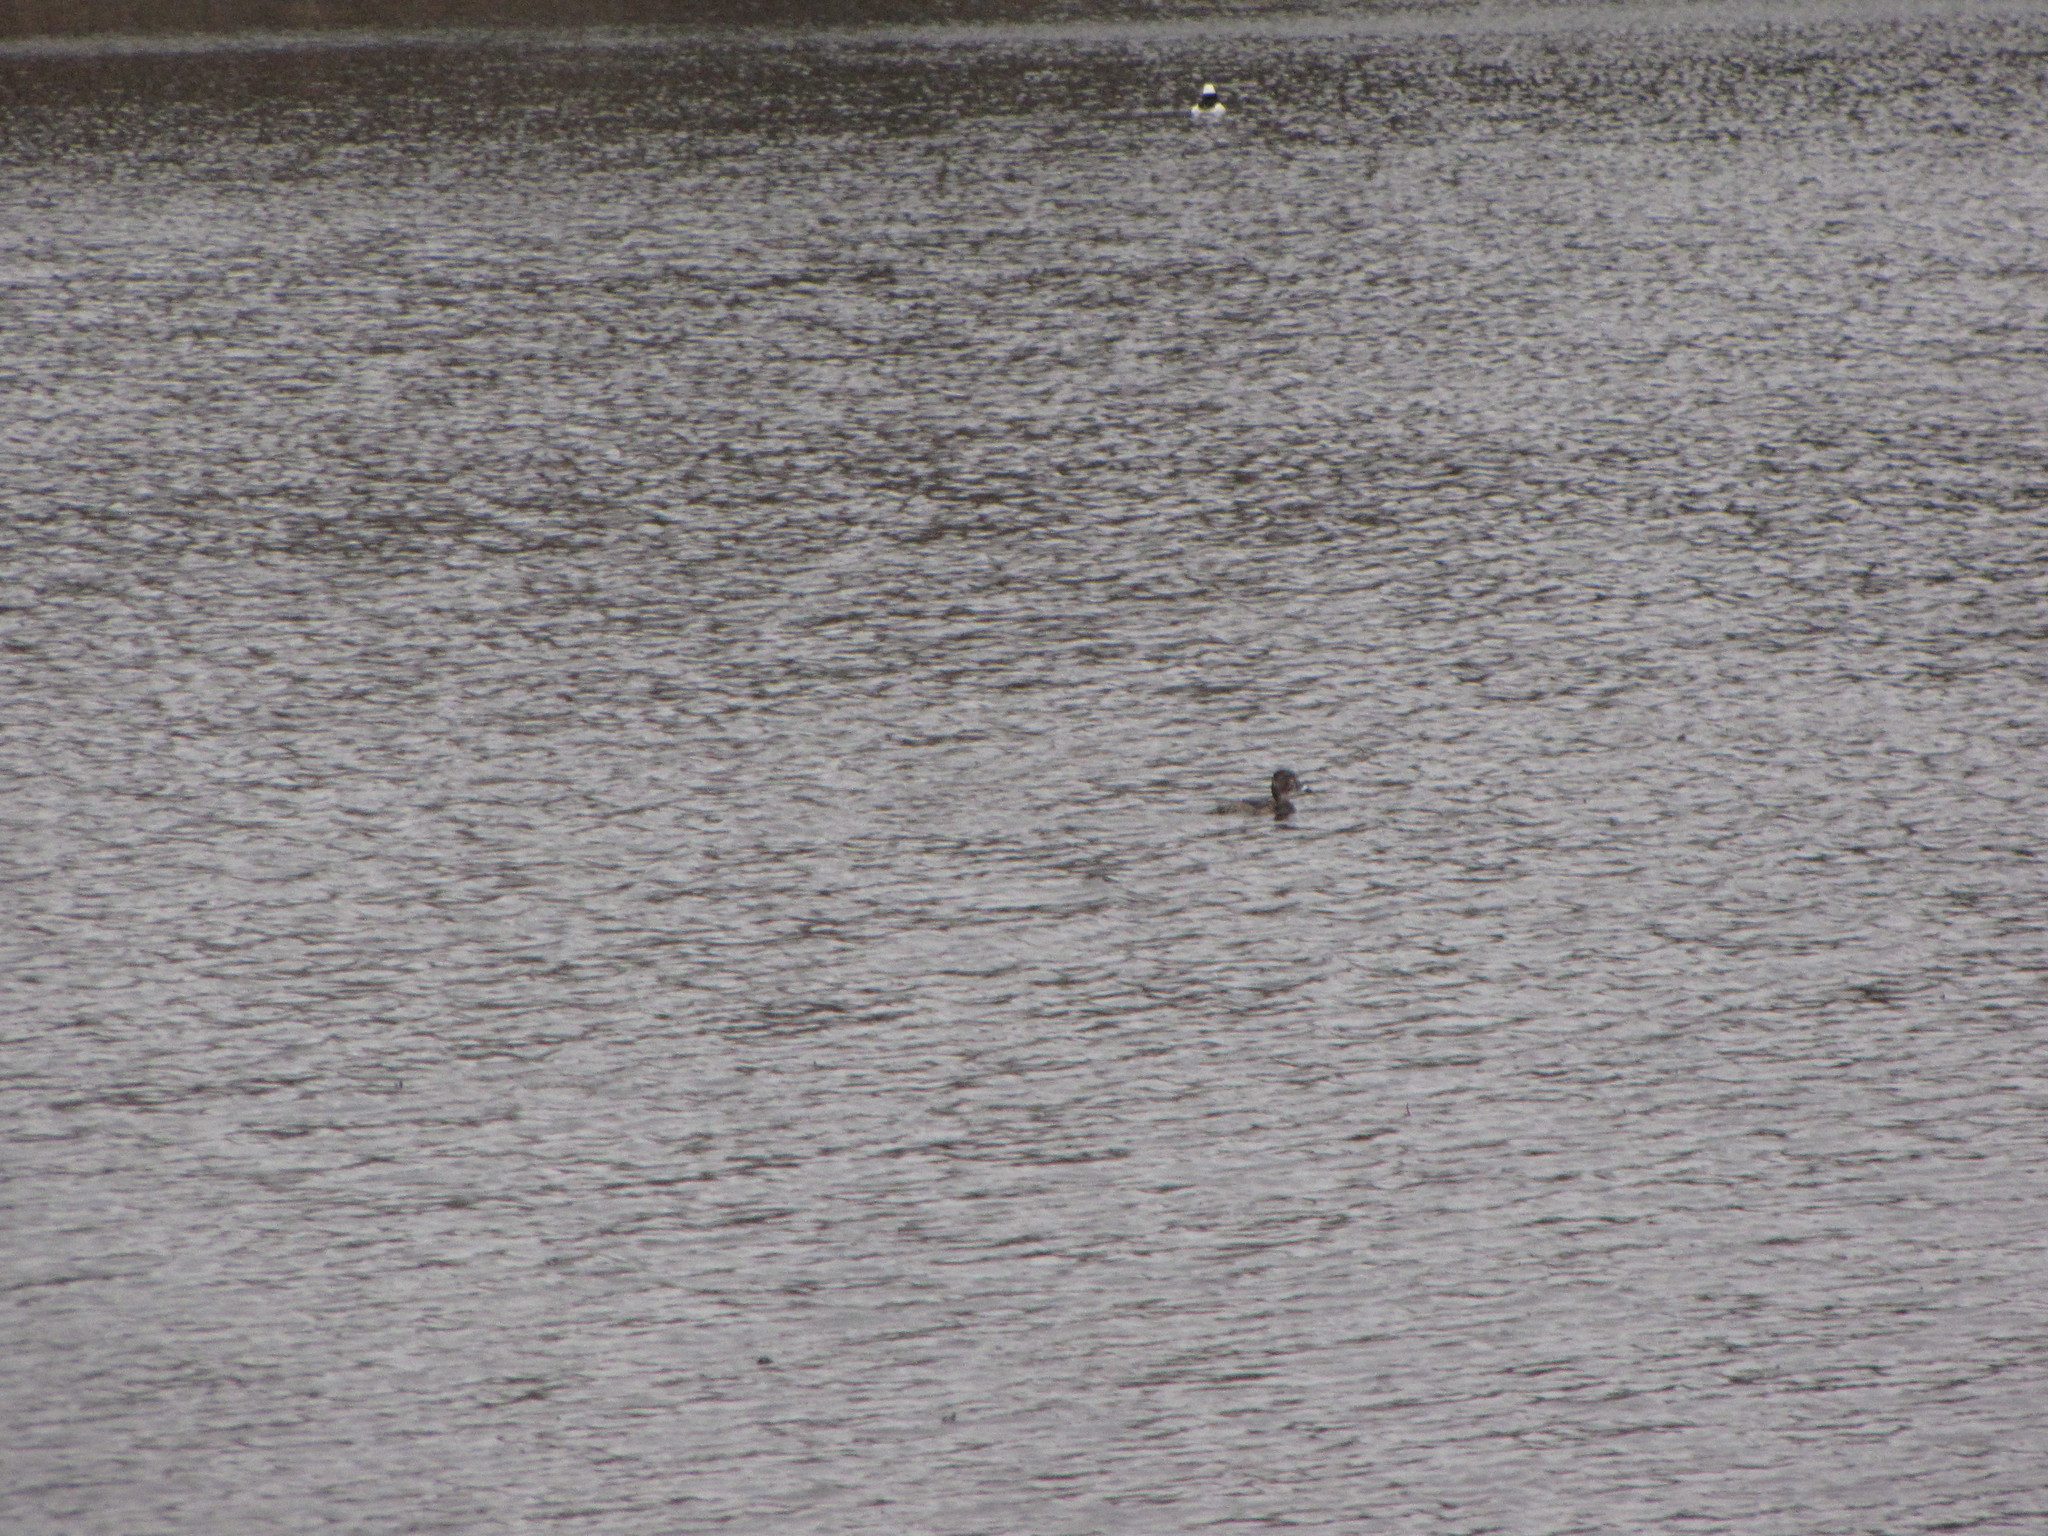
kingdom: Animalia
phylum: Chordata
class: Aves
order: Anseriformes
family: Anatidae
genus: Aythya
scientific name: Aythya collaris
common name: Ring-necked duck
